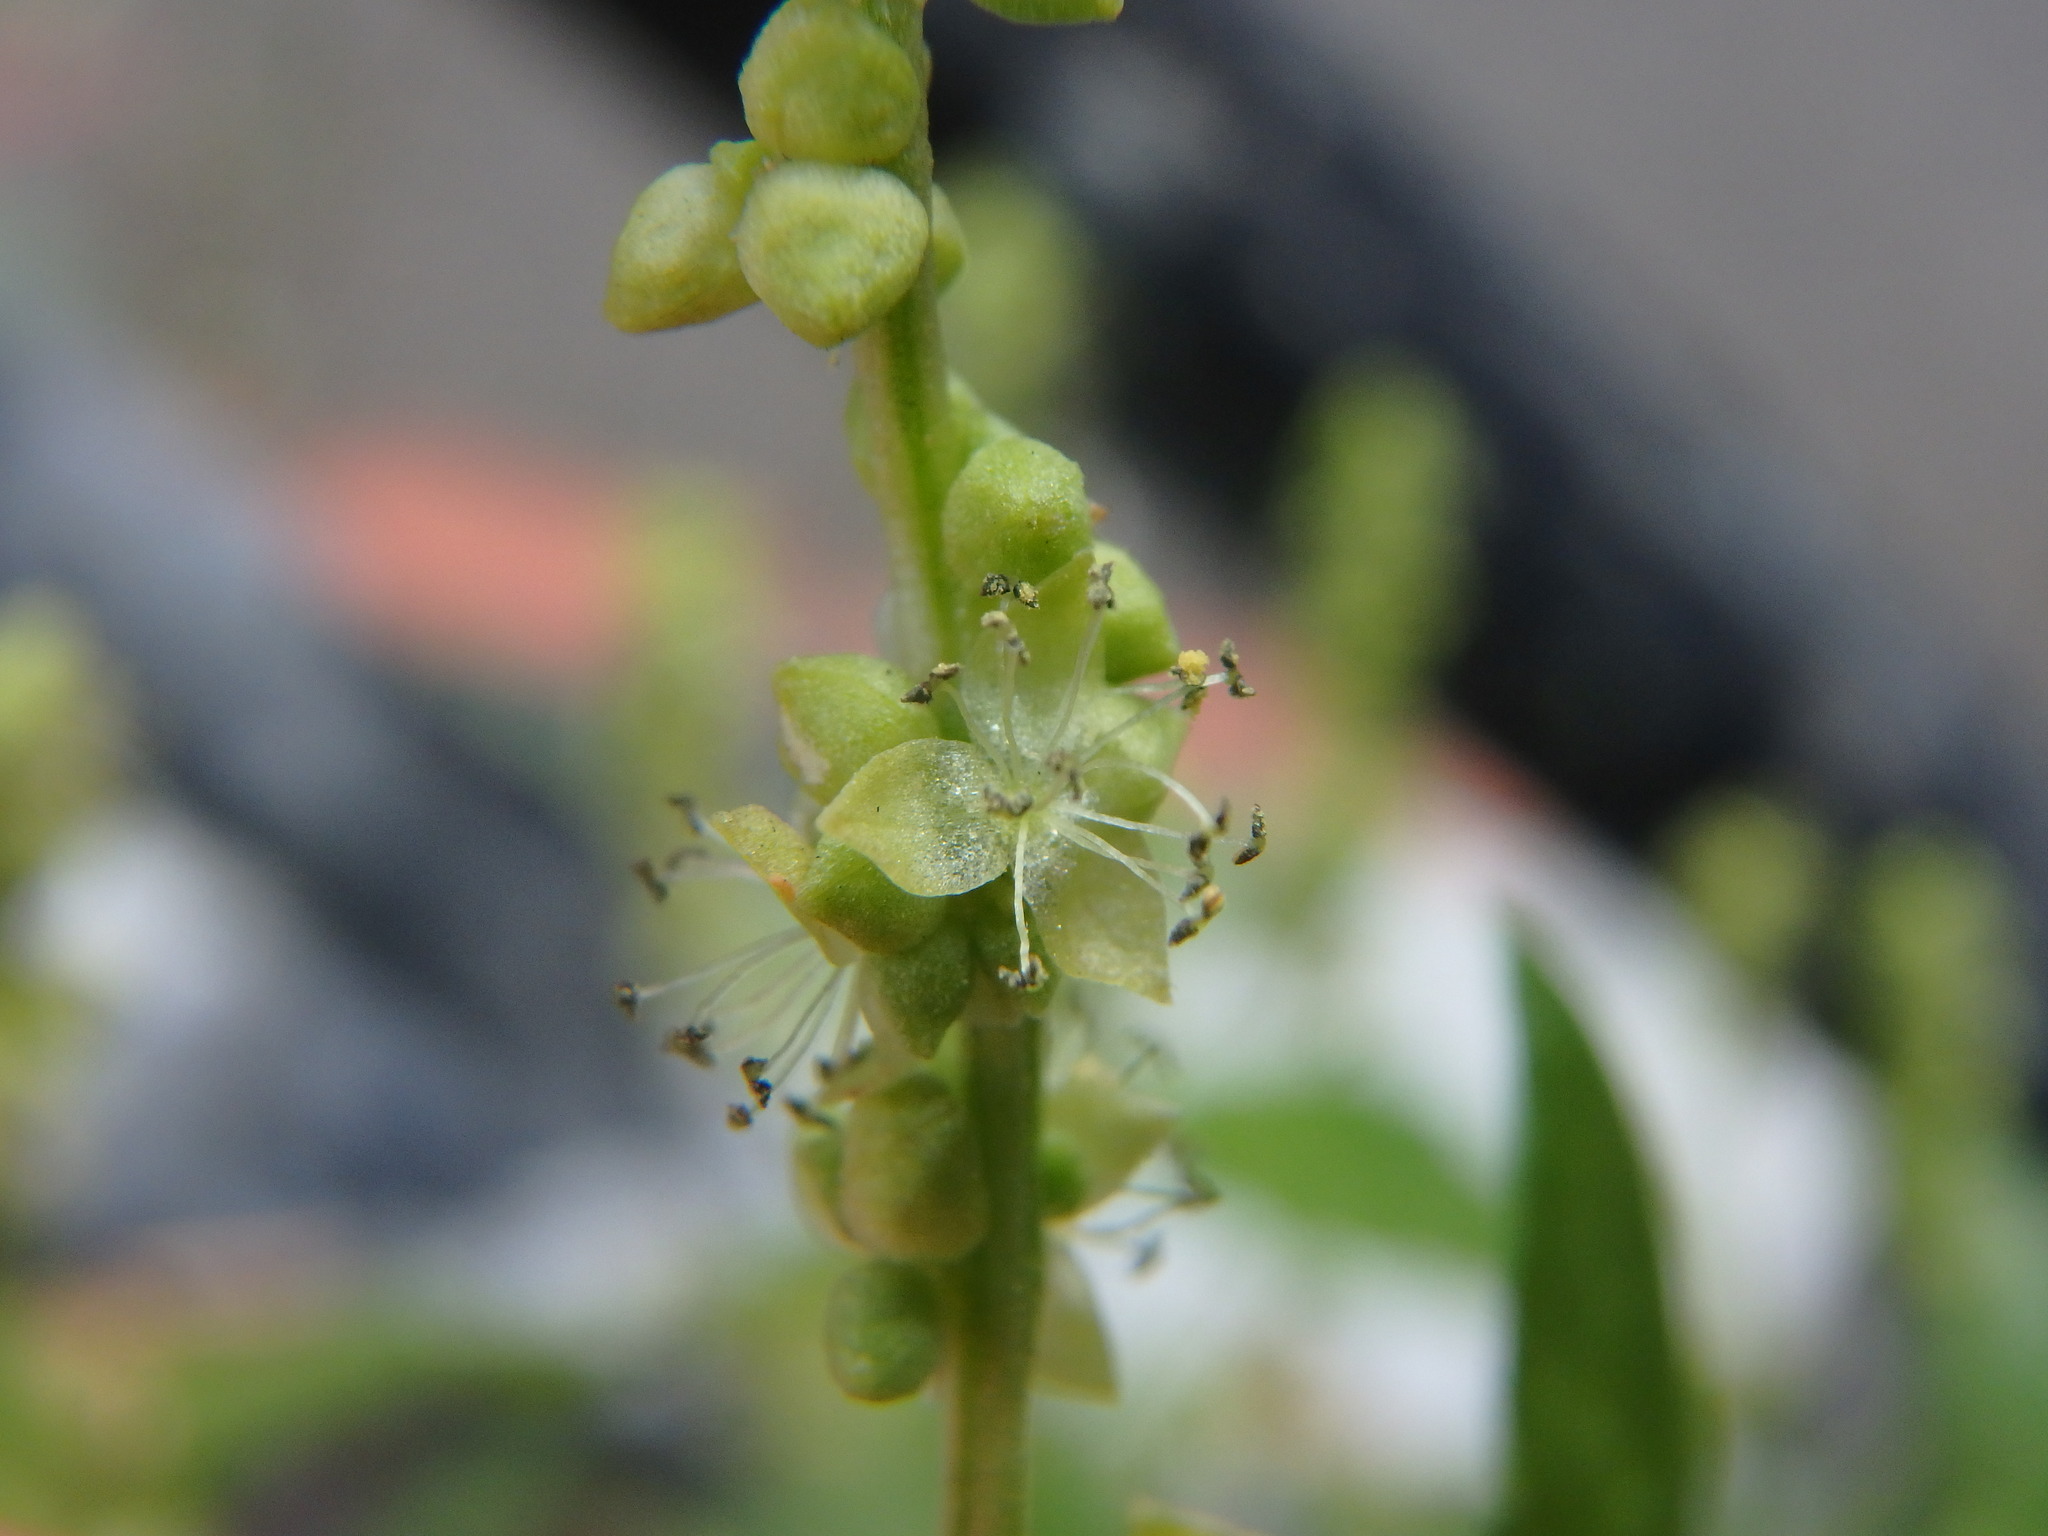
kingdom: Plantae
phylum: Tracheophyta
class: Magnoliopsida
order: Malpighiales
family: Euphorbiaceae
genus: Mercurialis
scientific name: Mercurialis annua
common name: Annual mercury
